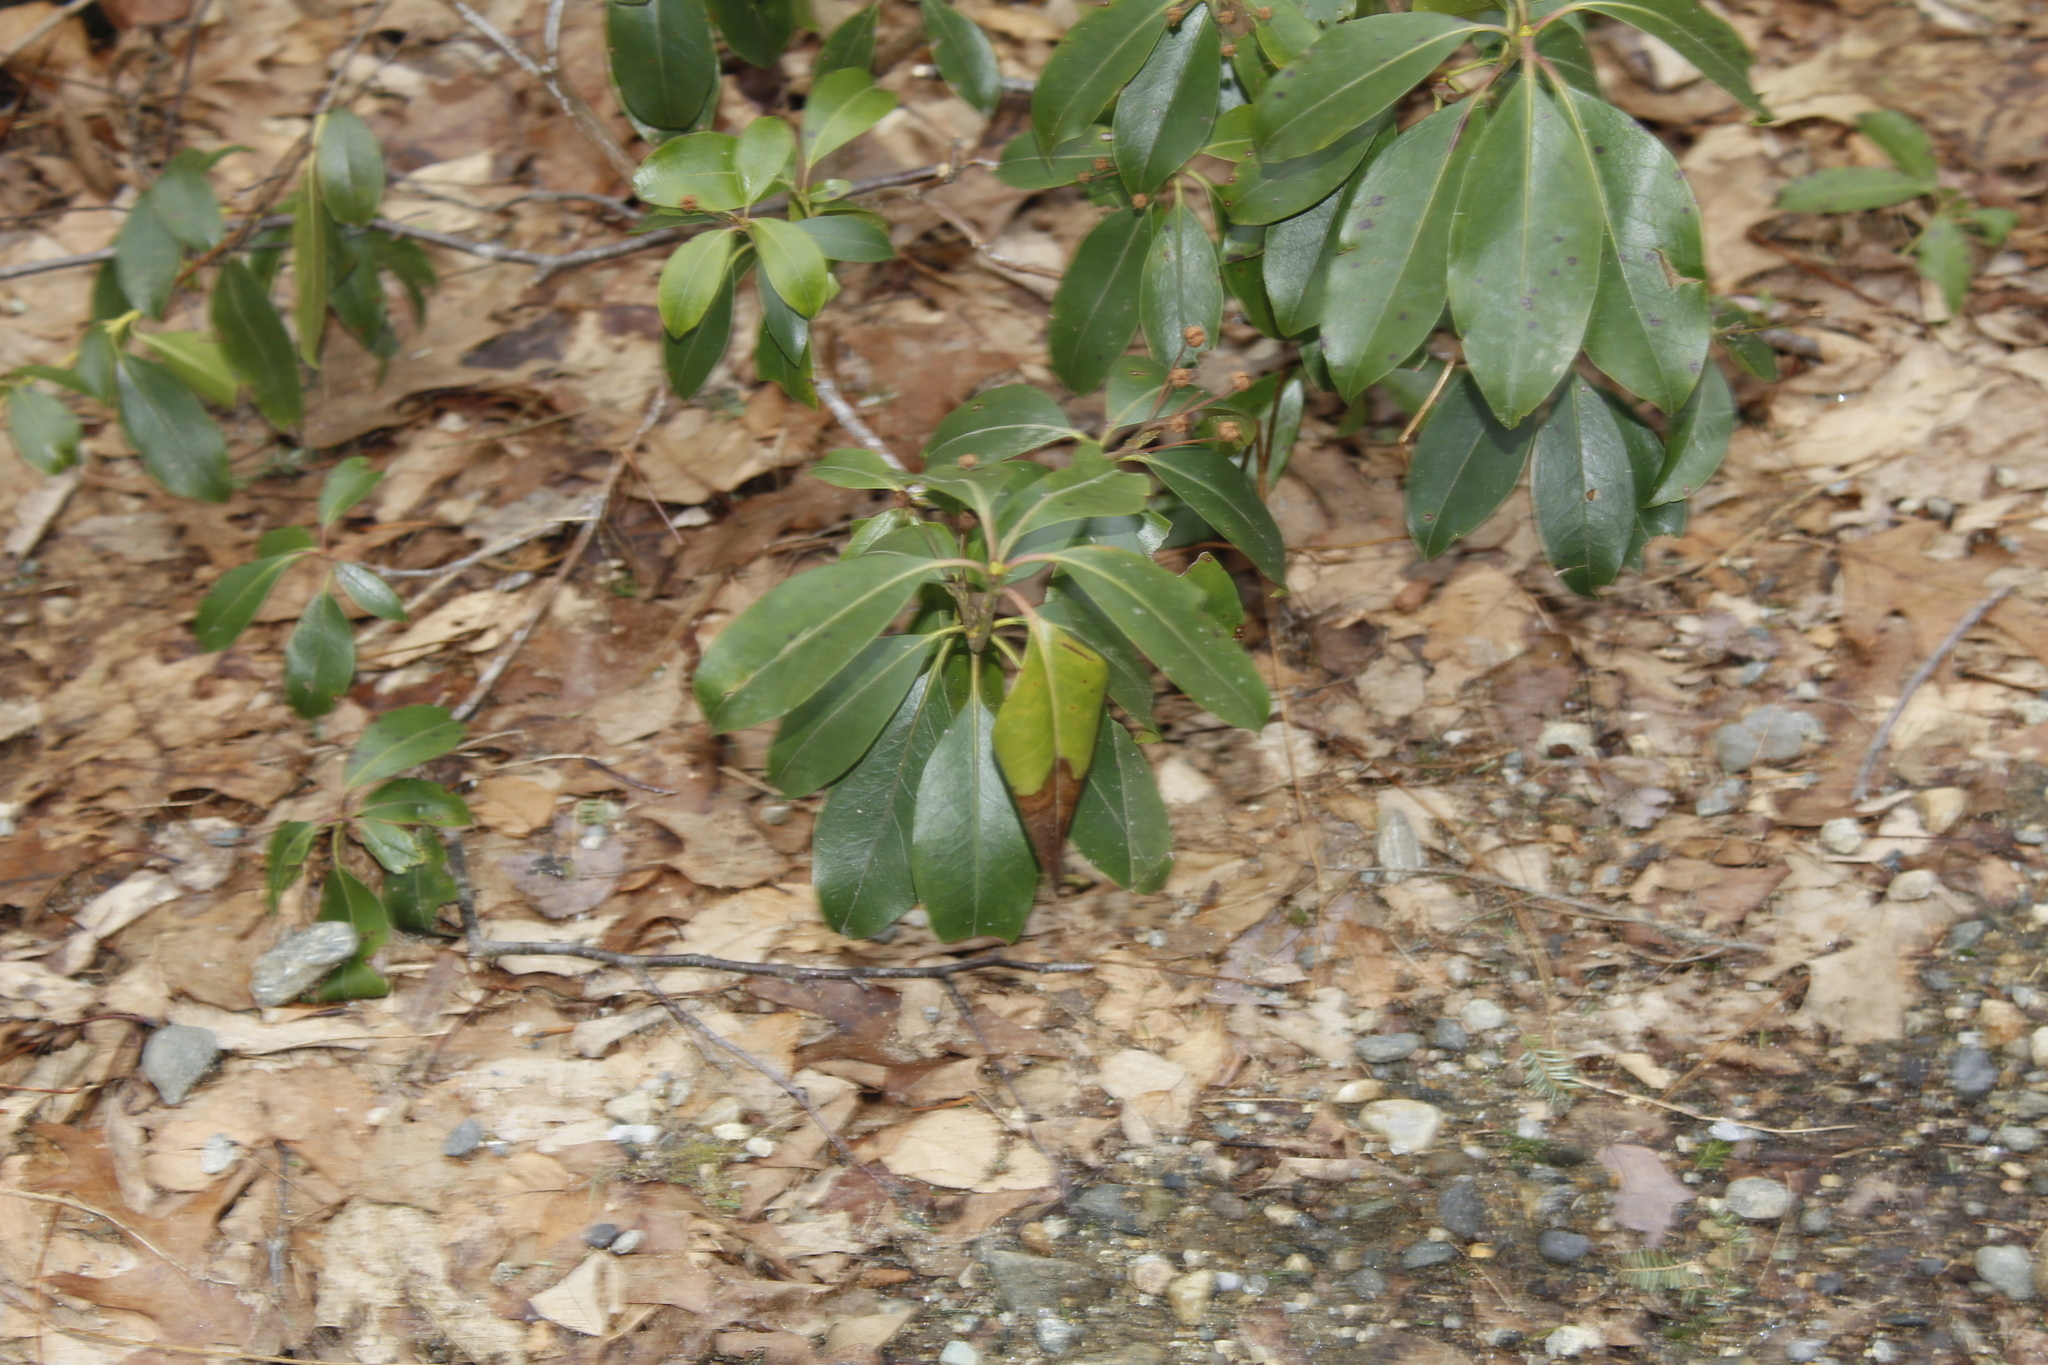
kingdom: Plantae
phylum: Tracheophyta
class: Magnoliopsida
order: Ericales
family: Ericaceae
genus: Kalmia
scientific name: Kalmia latifolia
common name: Mountain-laurel
